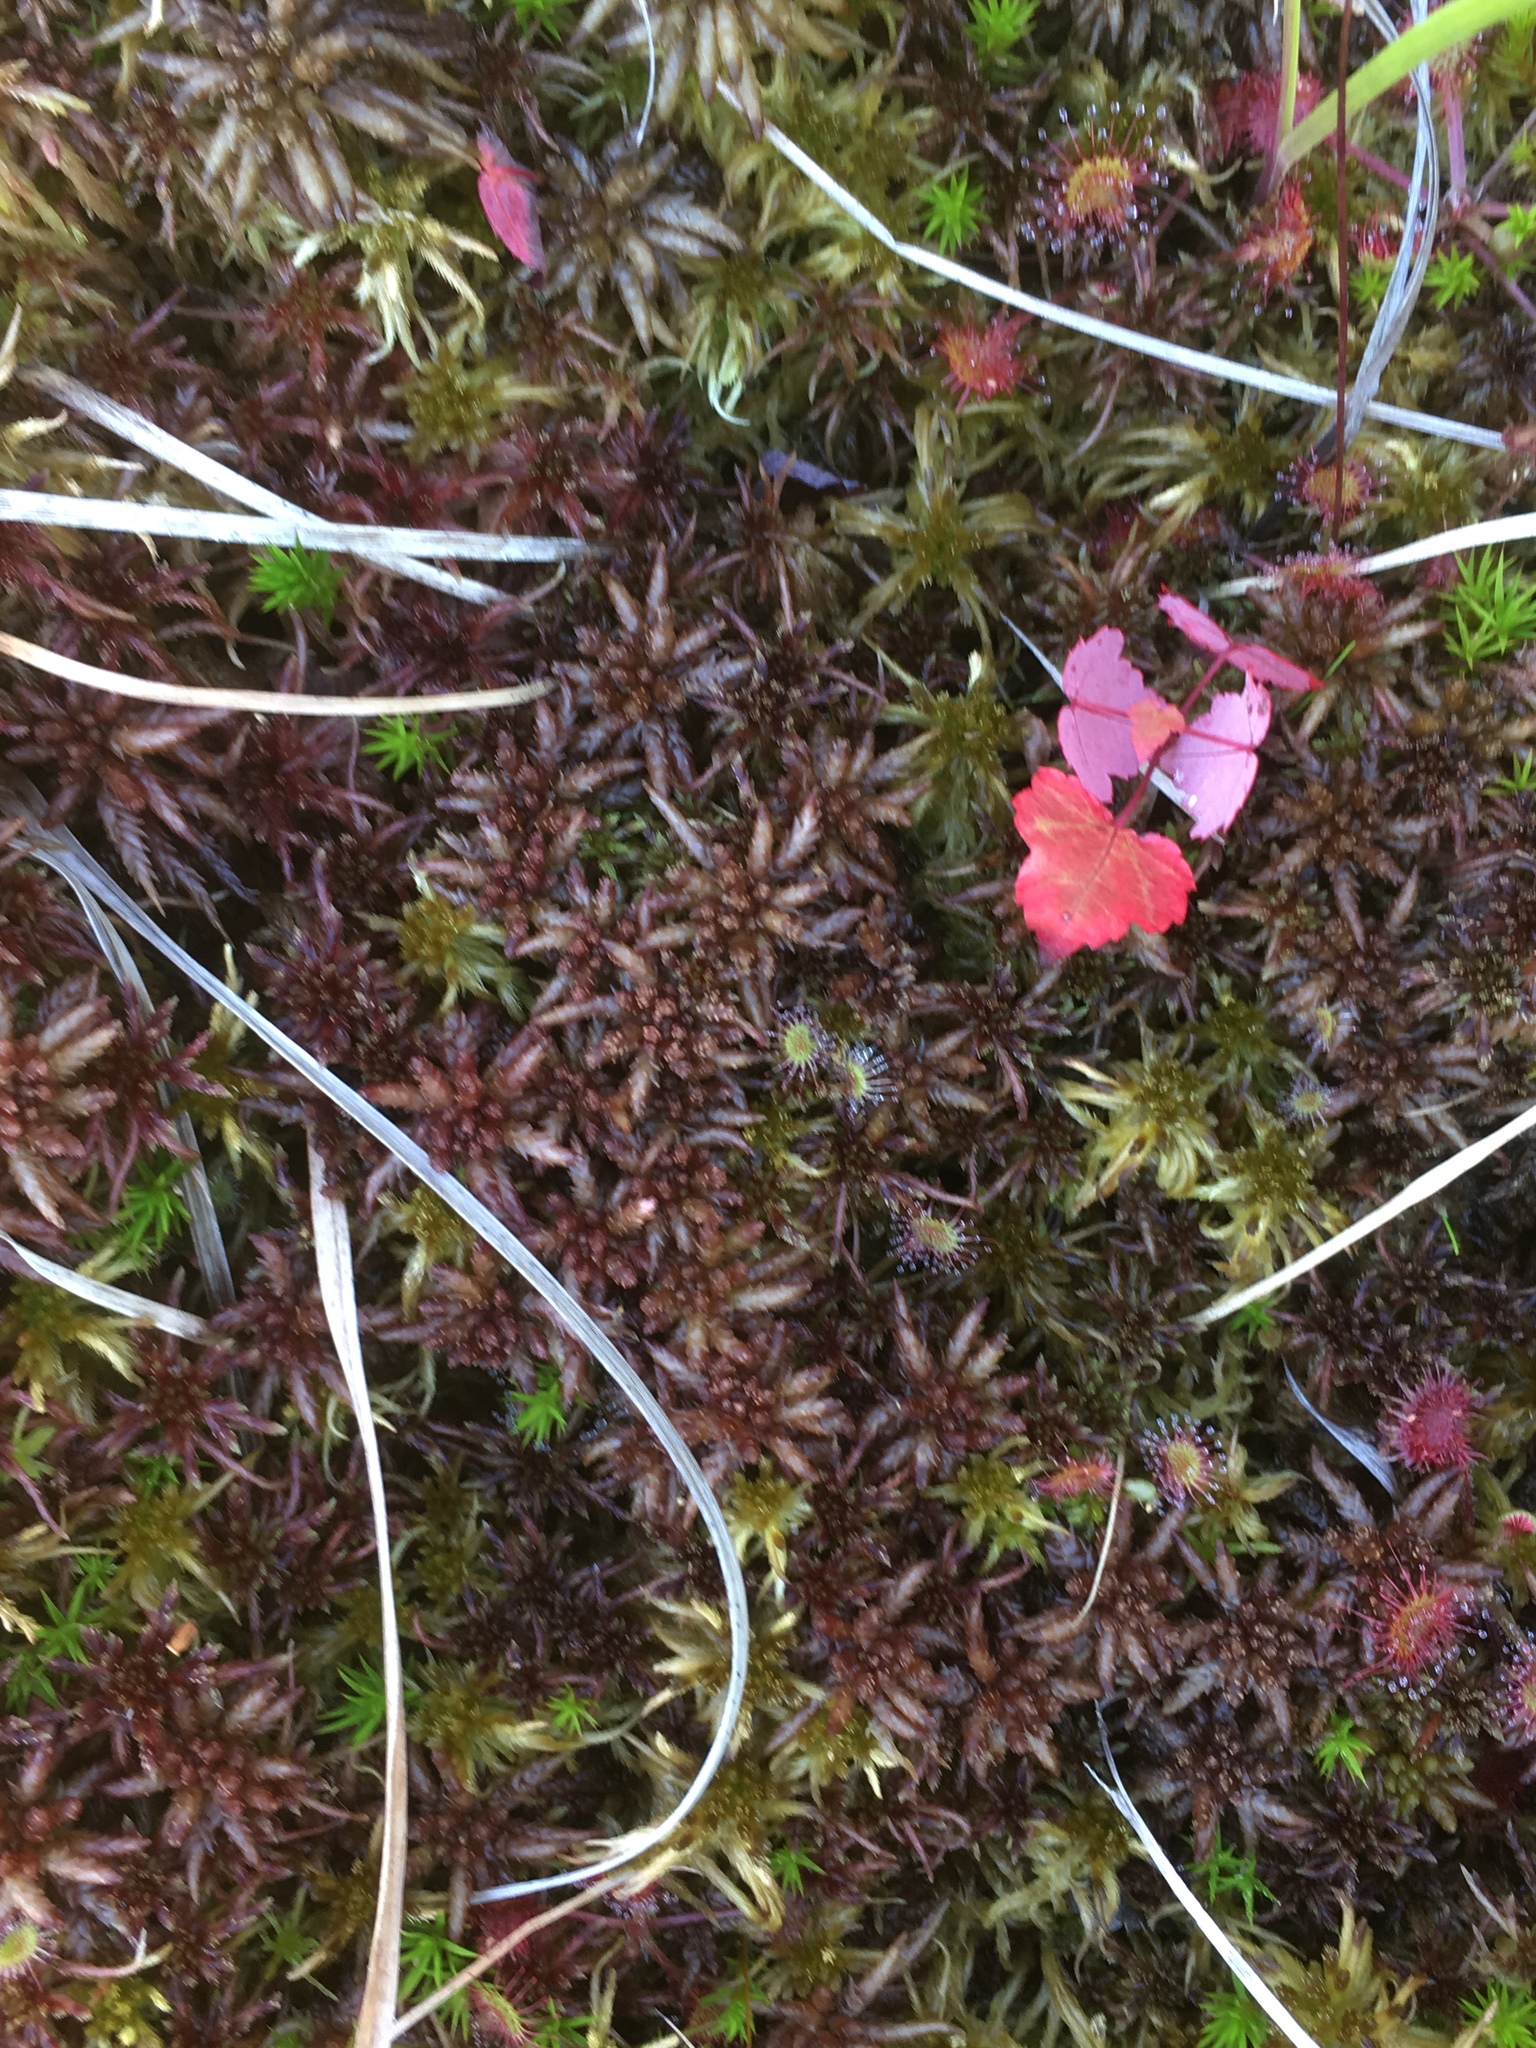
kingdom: Plantae
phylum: Tracheophyta
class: Magnoliopsida
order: Sapindales
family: Sapindaceae
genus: Acer
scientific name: Acer rubrum
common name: Red maple
